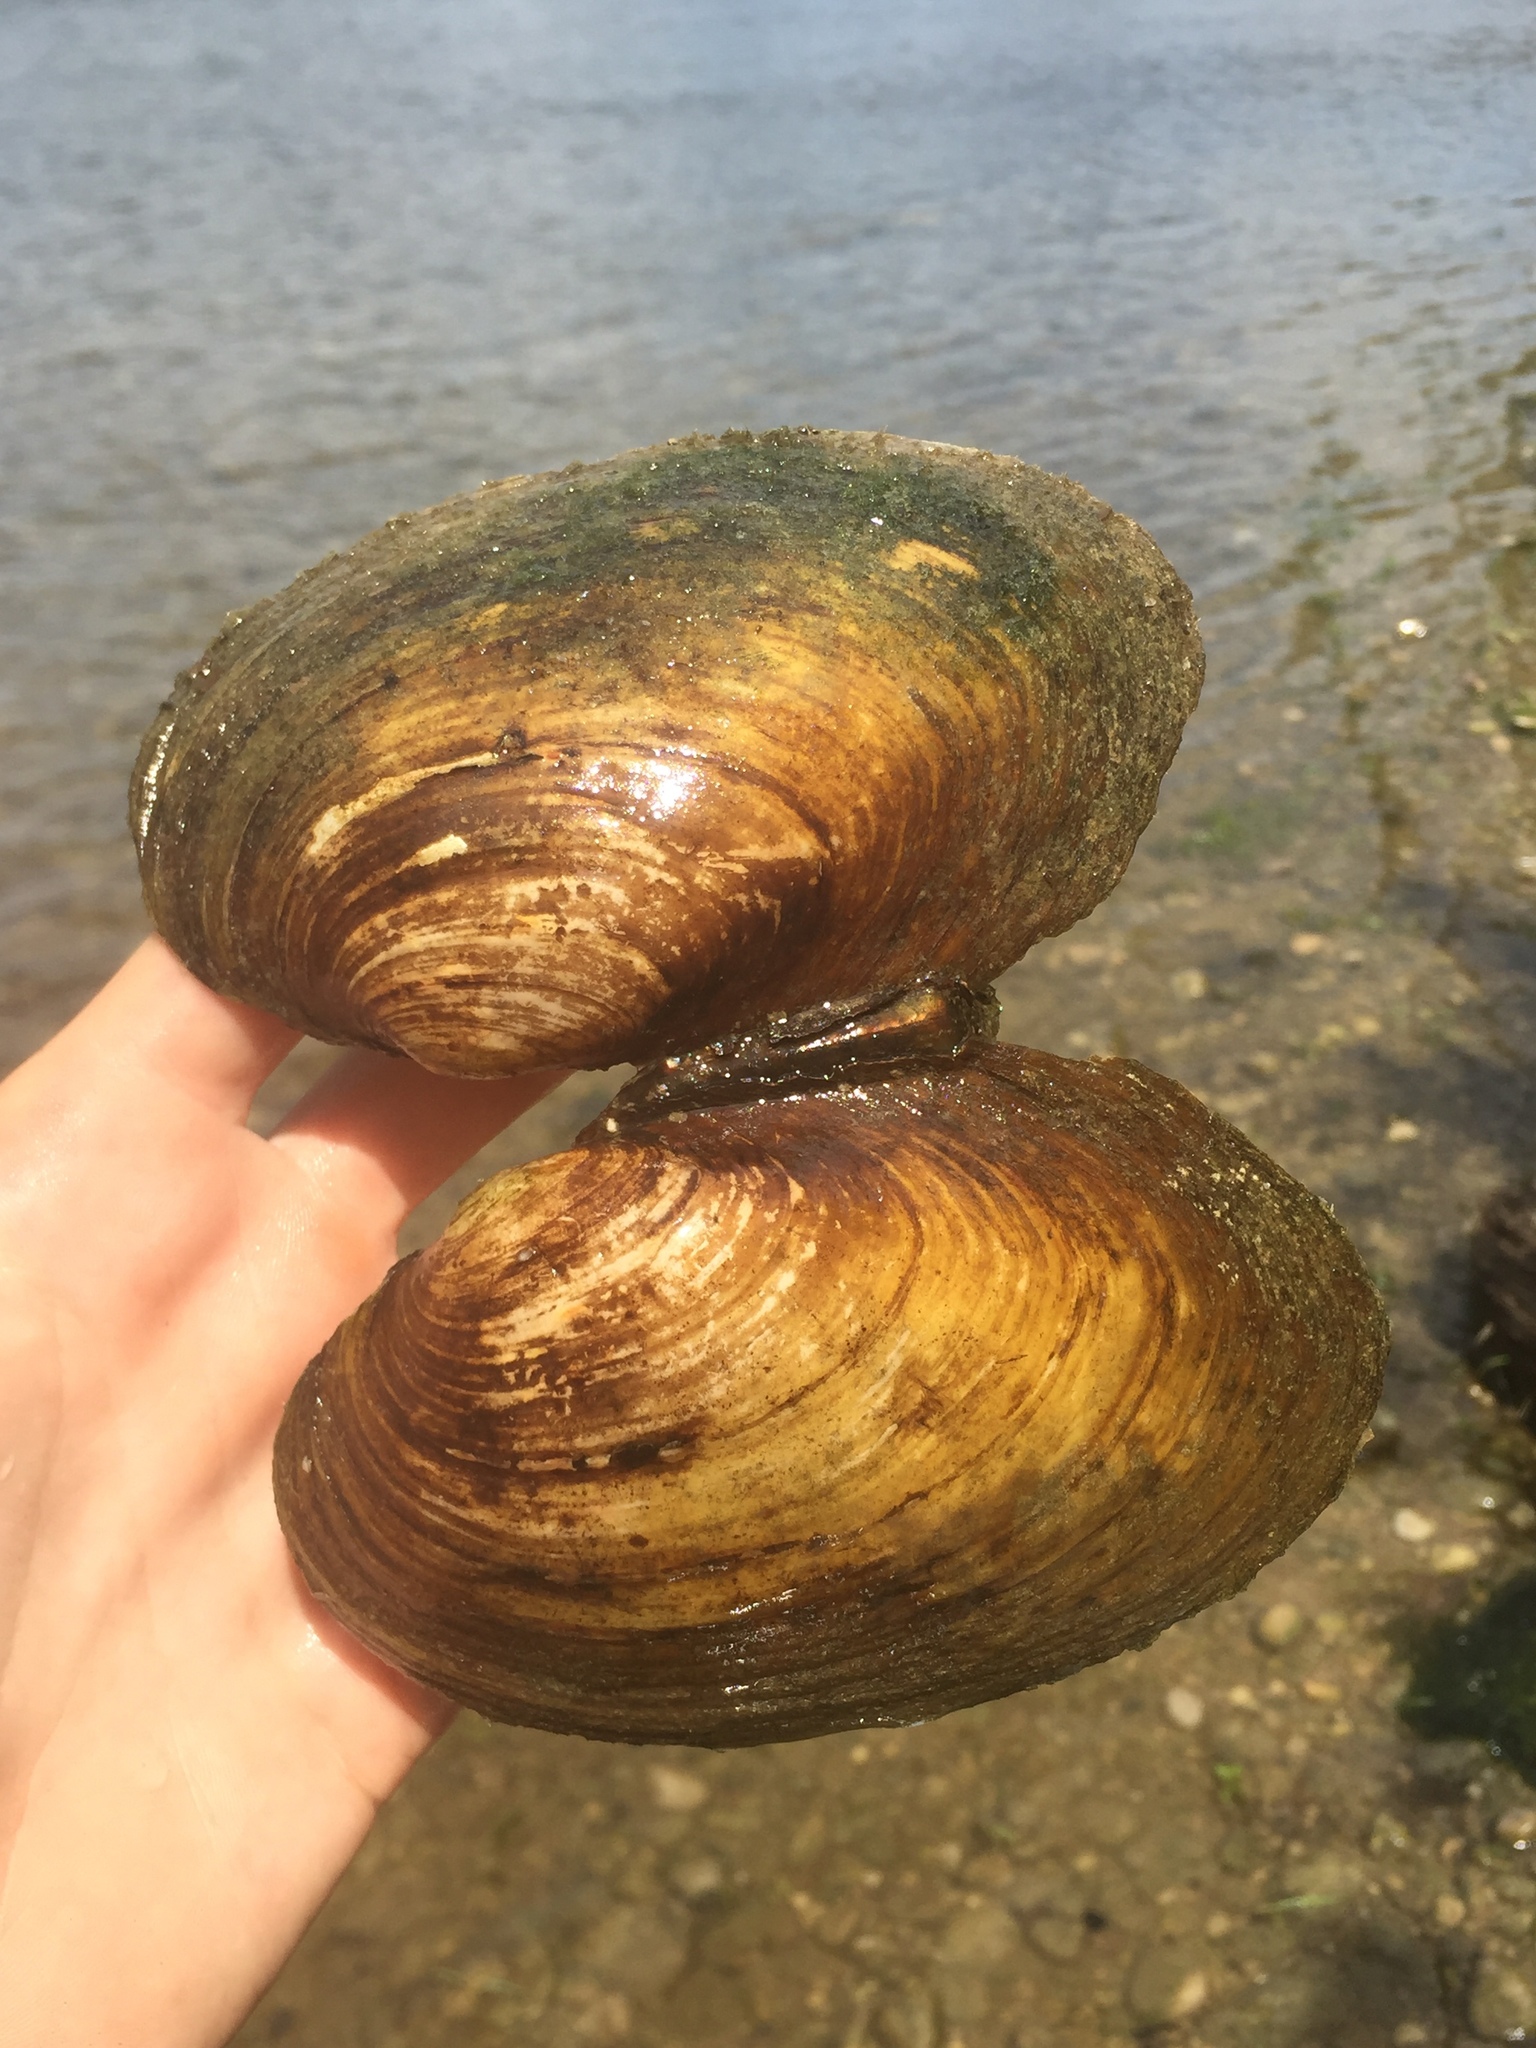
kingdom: Animalia
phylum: Mollusca
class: Bivalvia
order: Unionida
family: Unionidae
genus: Ortmanniana
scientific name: Ortmanniana ligamentina
